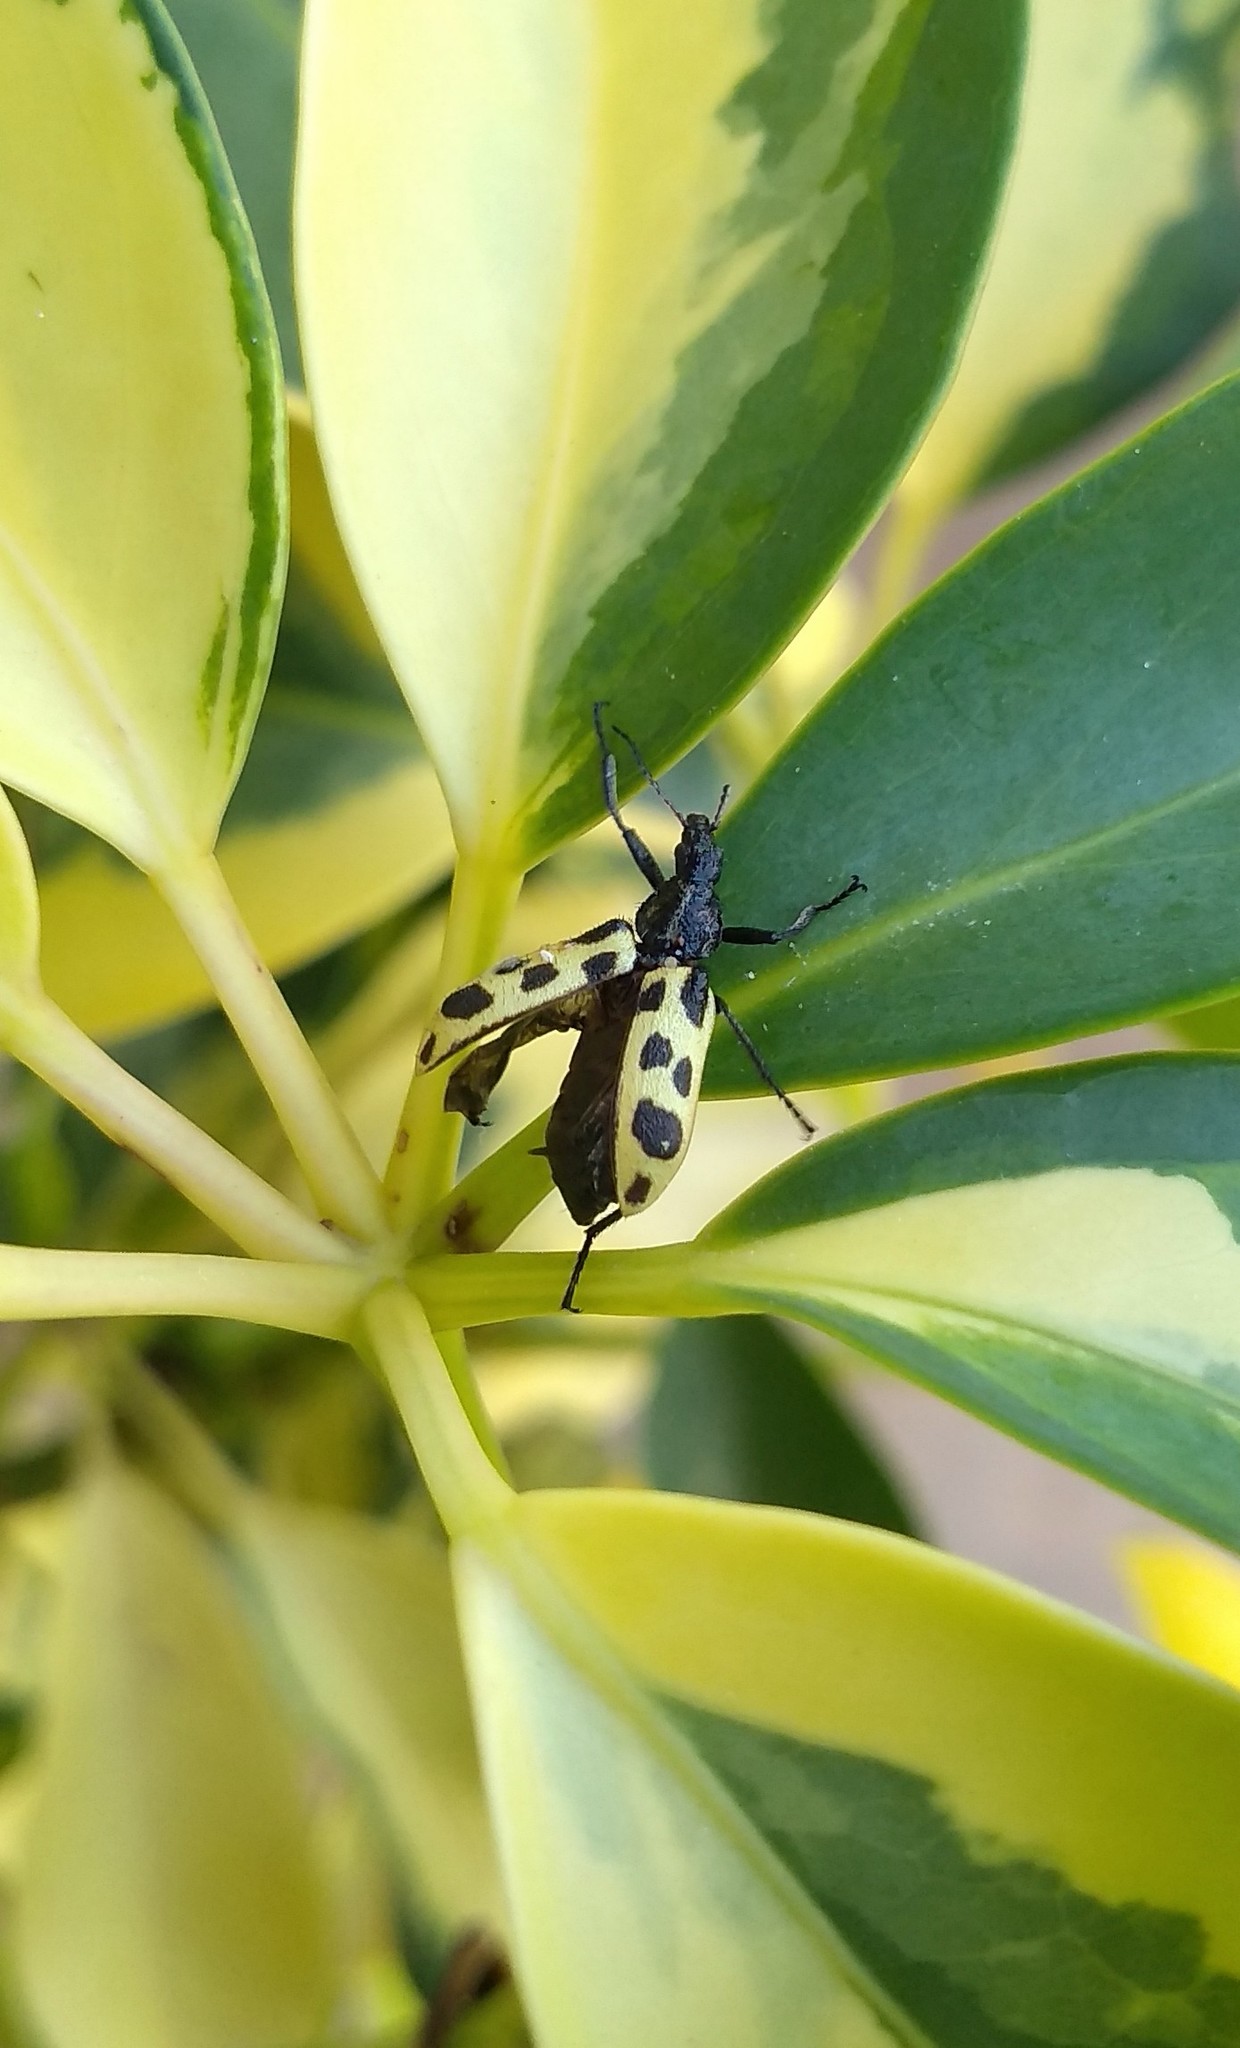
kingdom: Animalia
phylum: Arthropoda
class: Insecta
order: Coleoptera
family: Melyridae
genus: Astylus
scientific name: Astylus atromaculatus
